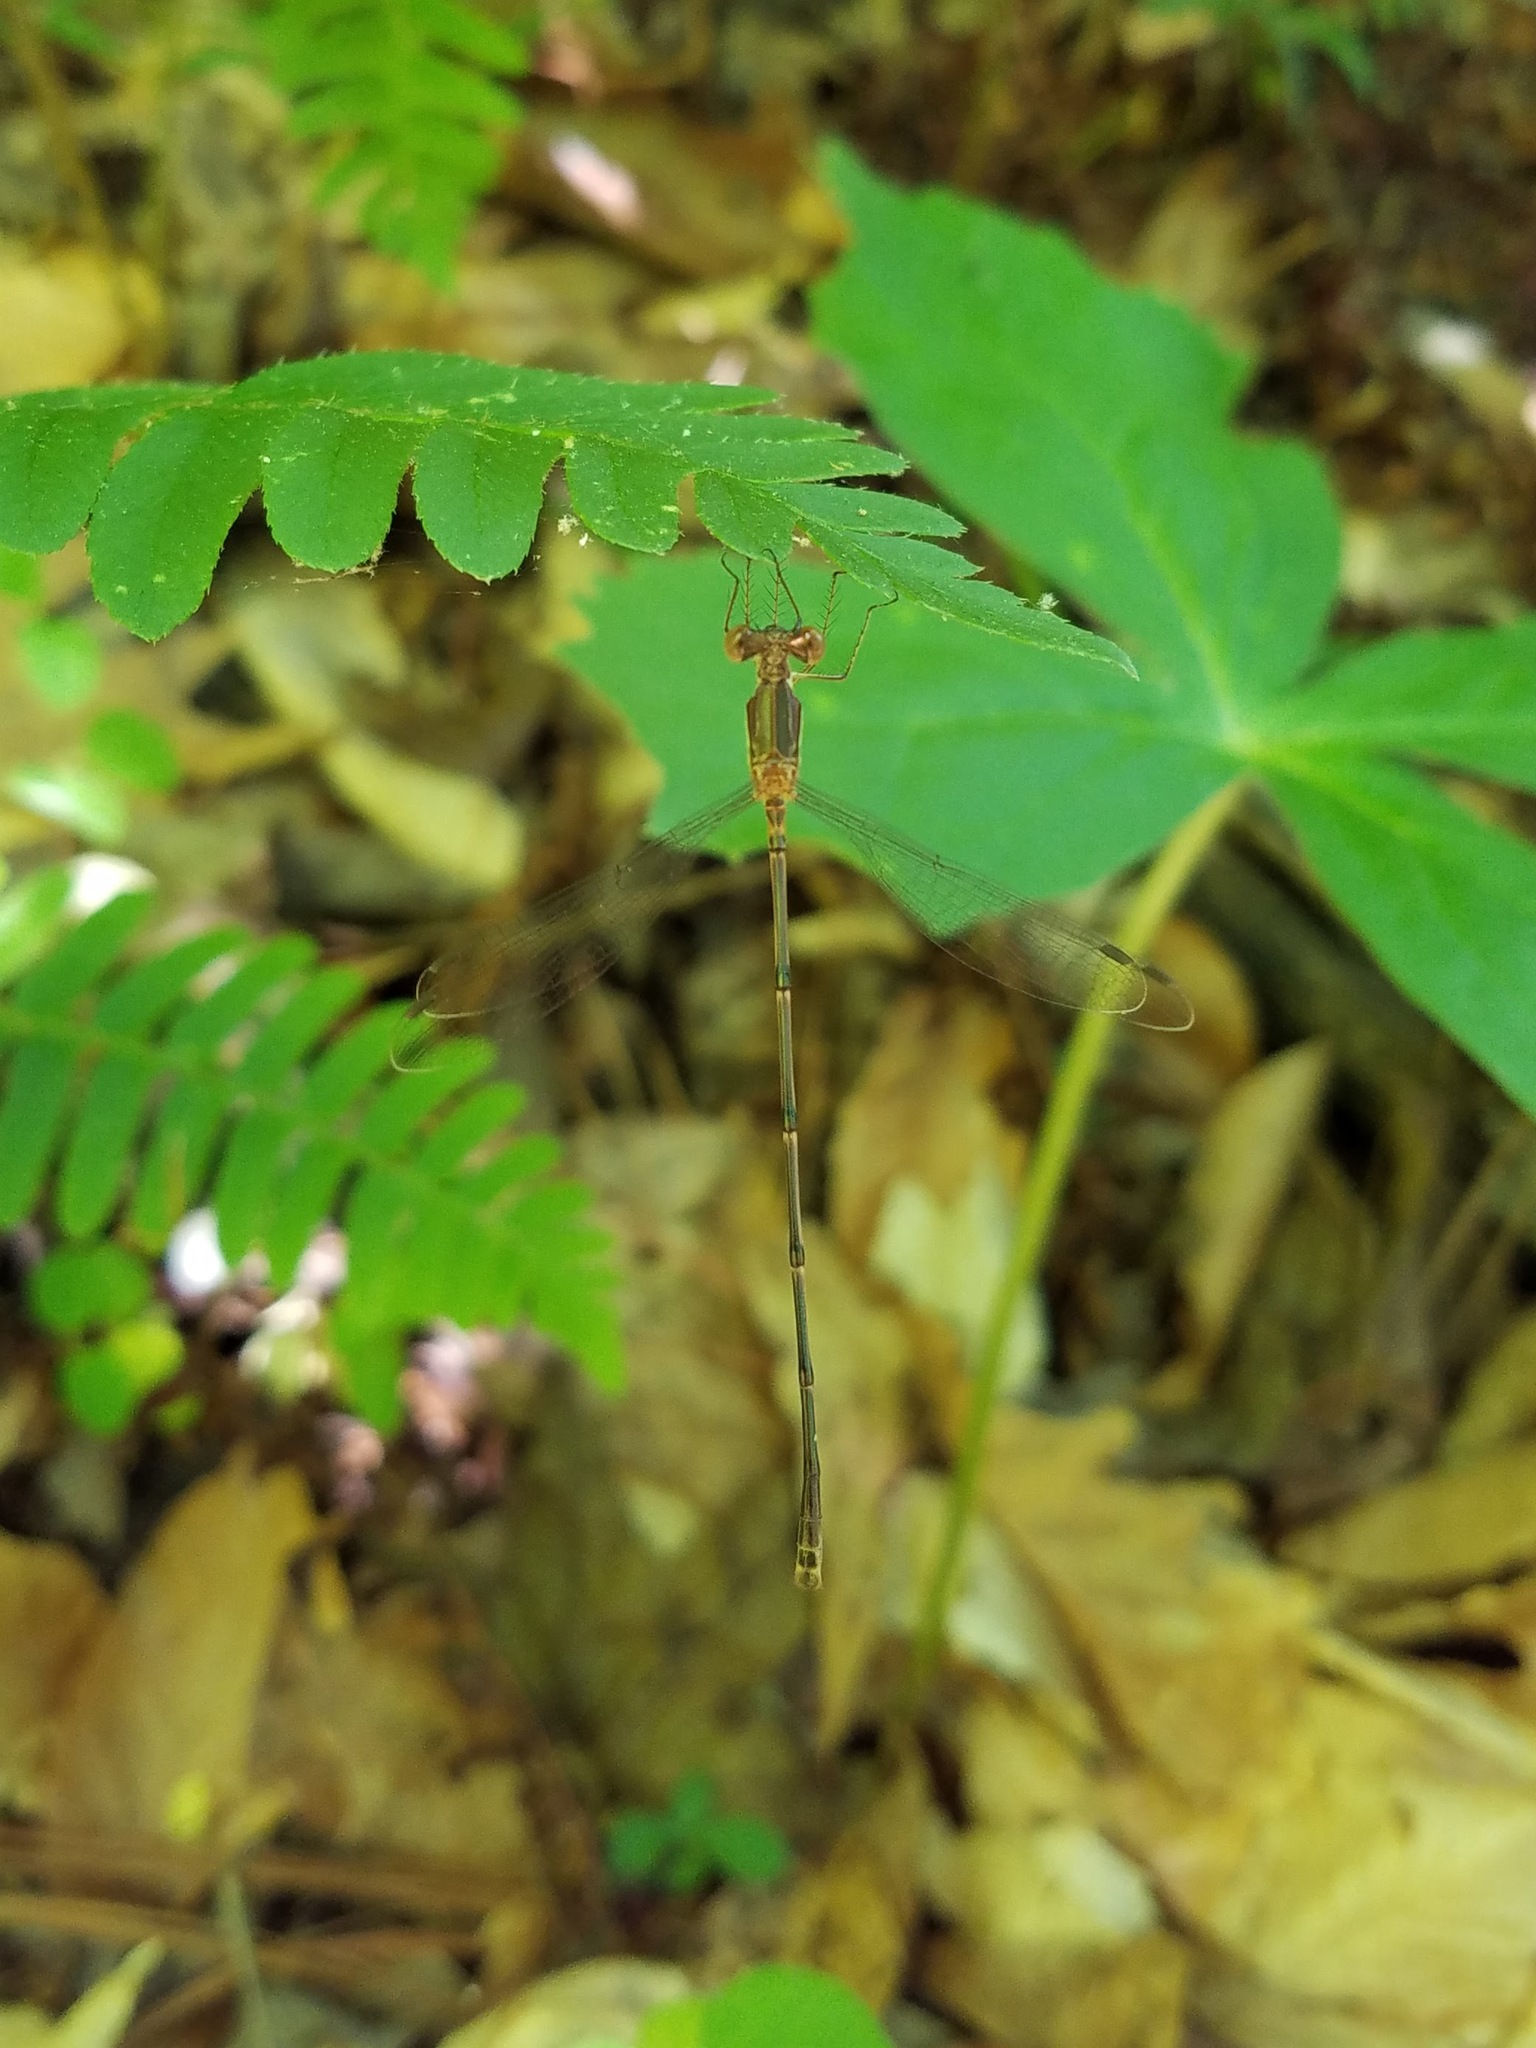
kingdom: Animalia
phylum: Arthropoda
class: Insecta
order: Odonata
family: Lestidae
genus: Lestes
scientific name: Lestes rectangularis
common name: Slender spreadwing
